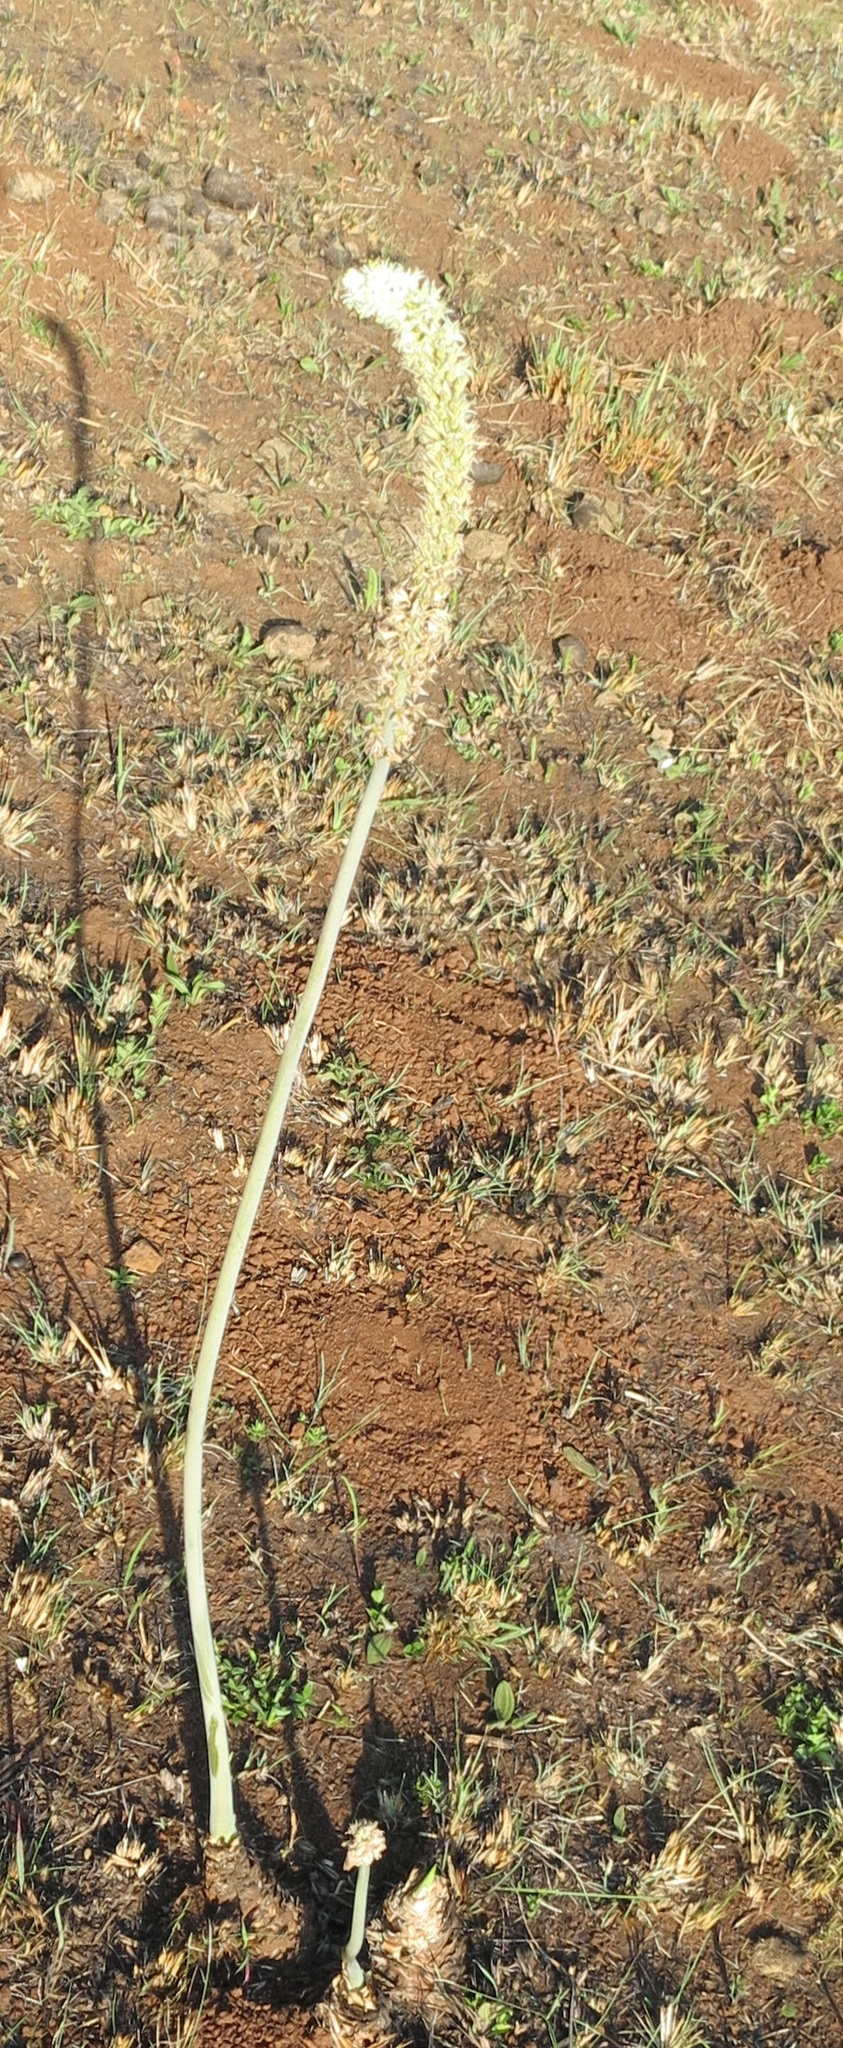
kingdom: Plantae
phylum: Tracheophyta
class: Liliopsida
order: Asparagales
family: Asparagaceae
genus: Drimia
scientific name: Drimia altissima
